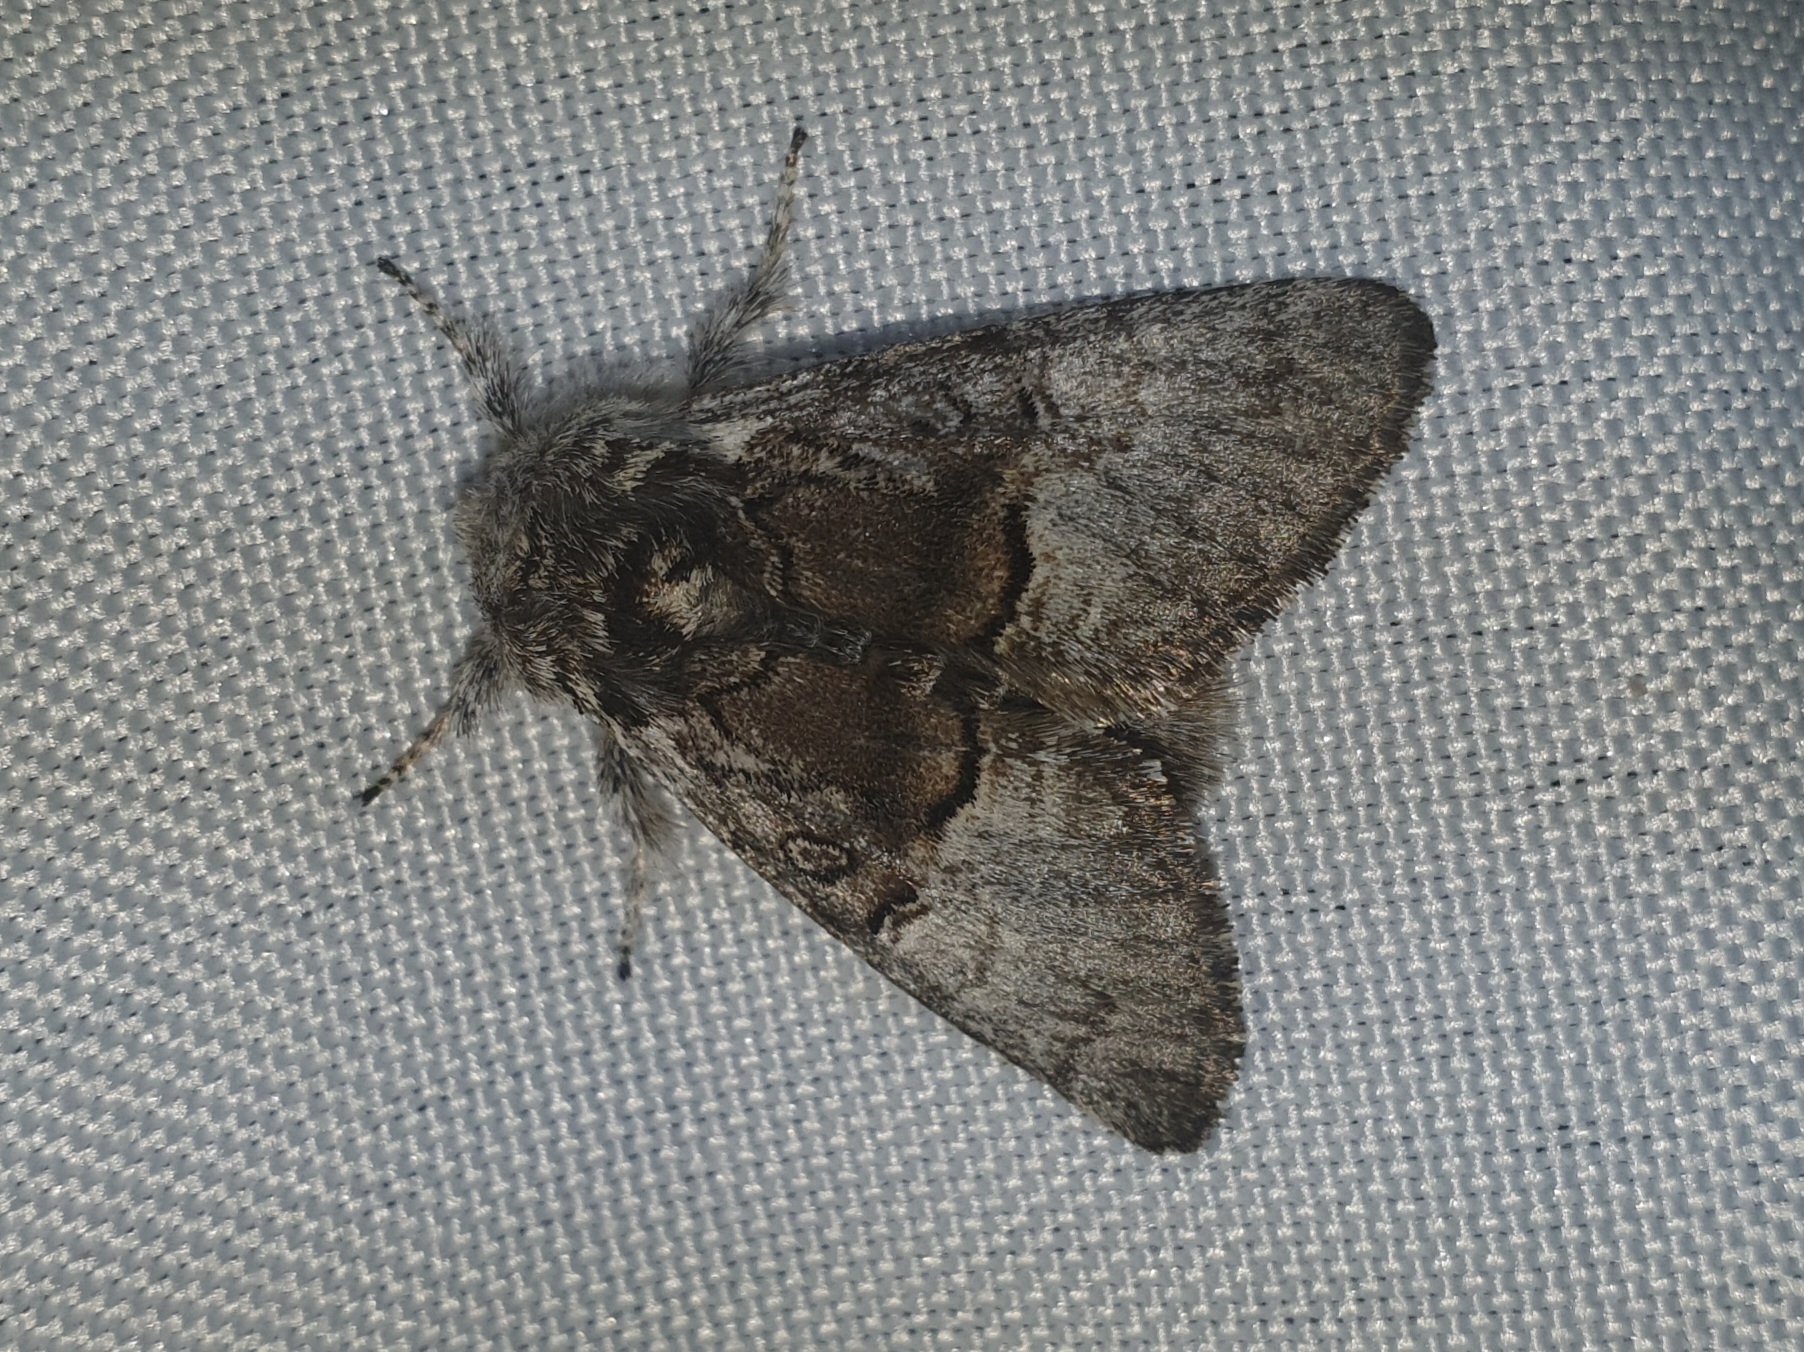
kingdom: Animalia
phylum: Arthropoda
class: Insecta
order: Lepidoptera
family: Noctuidae
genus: Colocasia
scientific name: Colocasia coryli
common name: Nut-tree tussock
